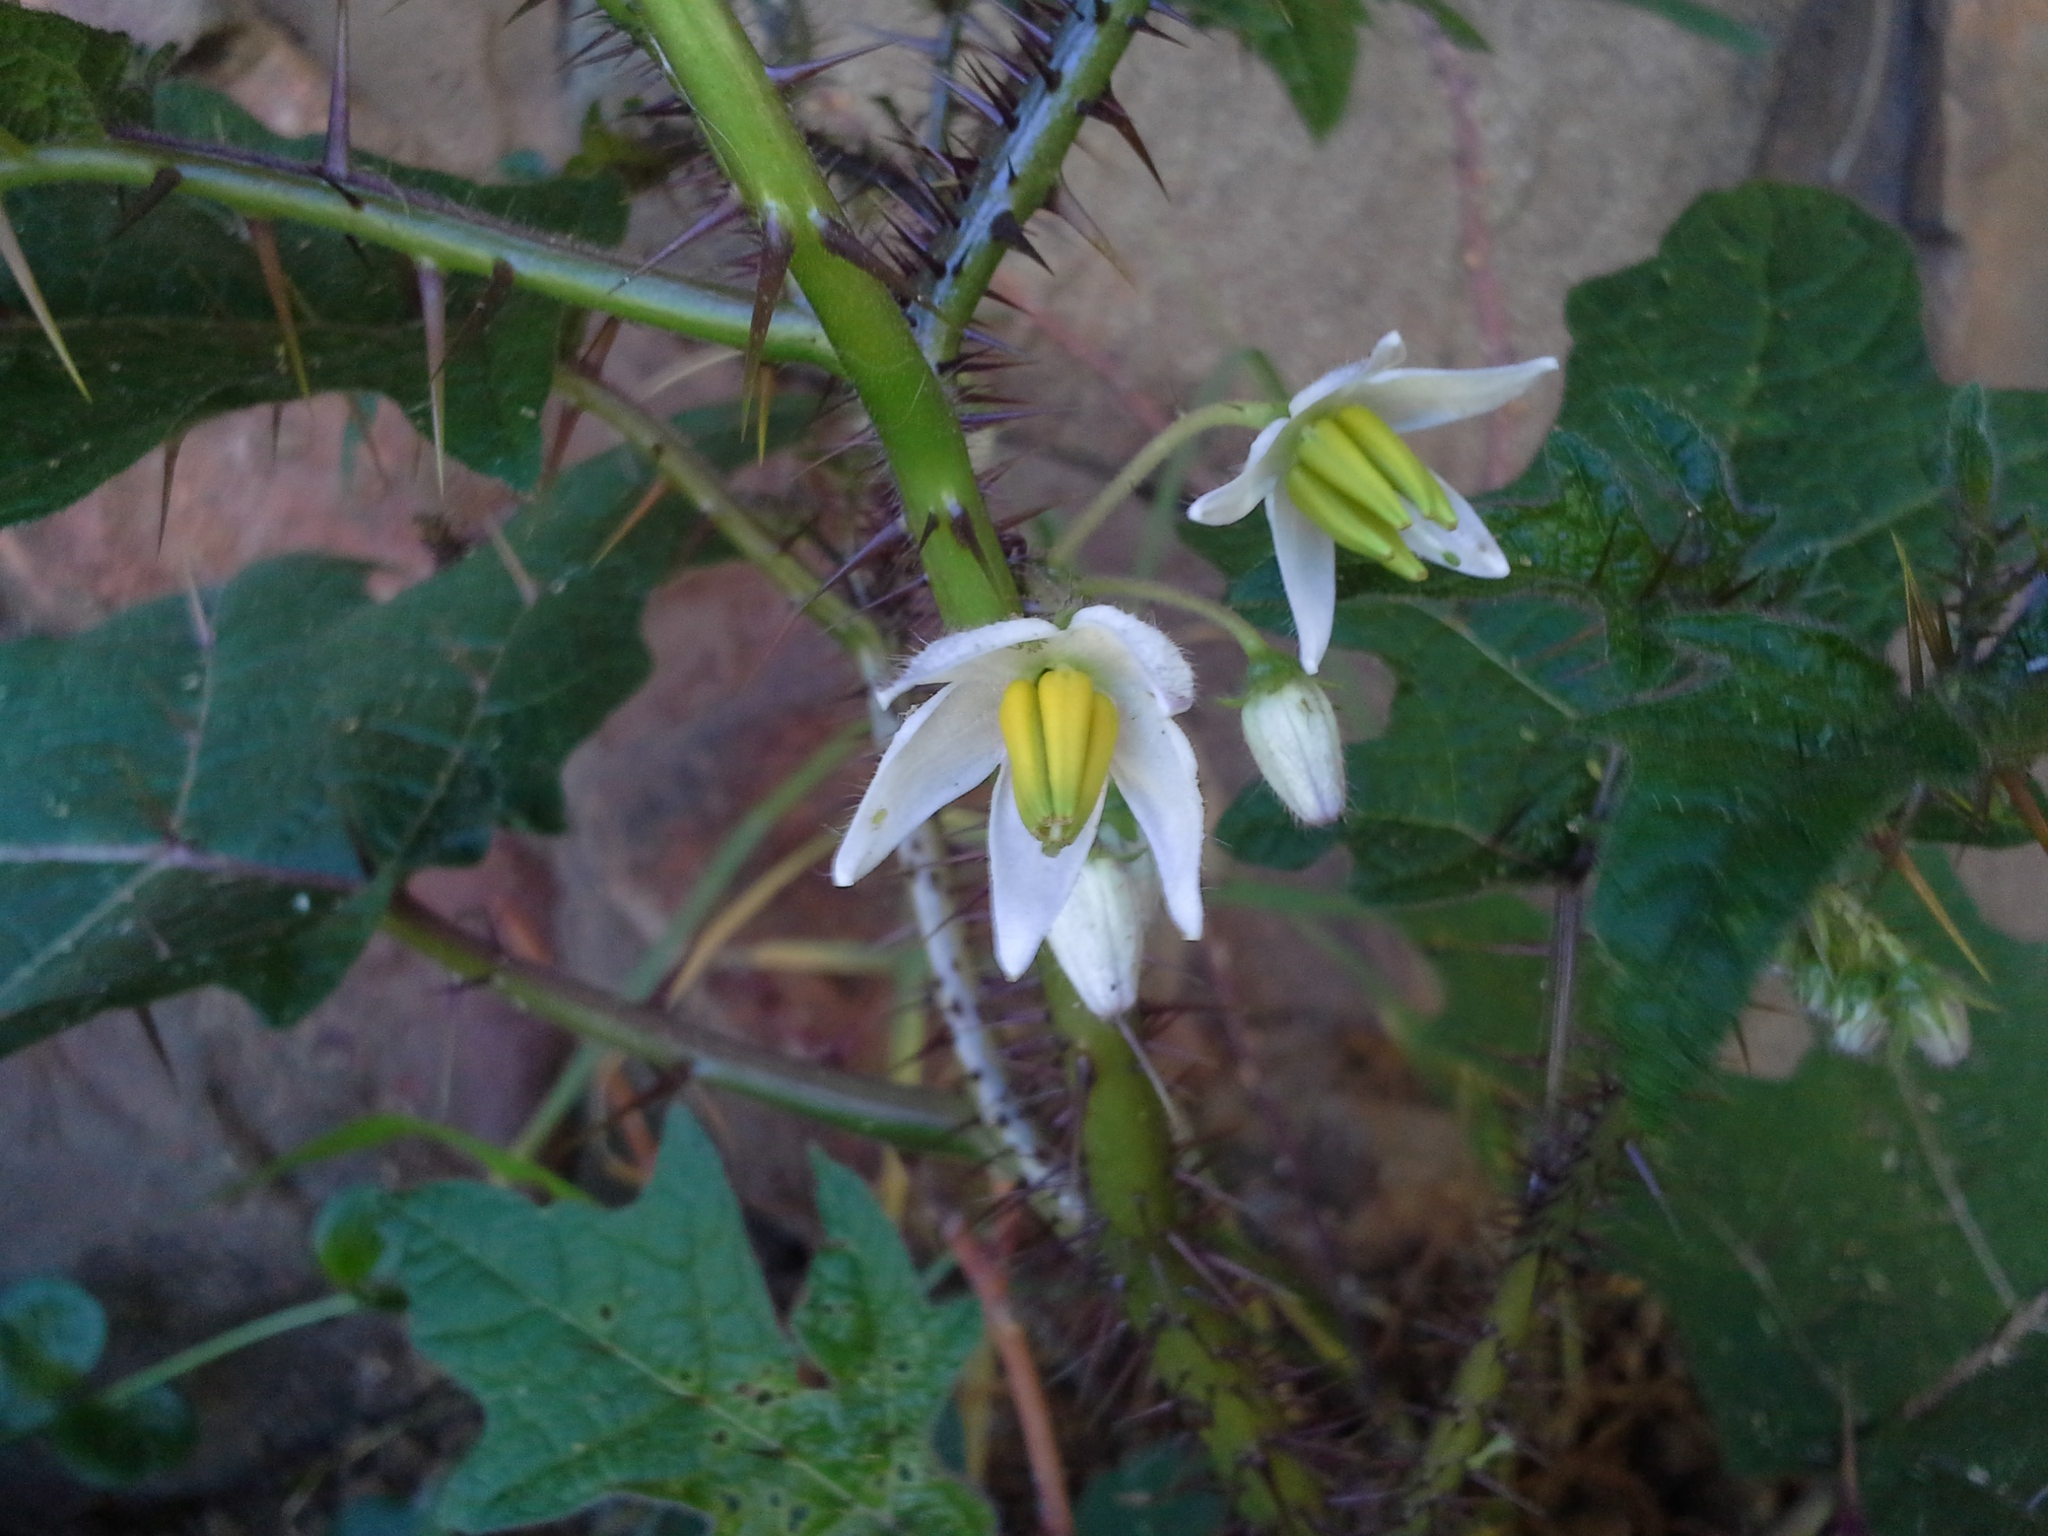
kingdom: Plantae
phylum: Tracheophyta
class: Magnoliopsida
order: Solanales
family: Solanaceae
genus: Solanum
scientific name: Solanum aculeatissimum
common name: Dutch eggplant
